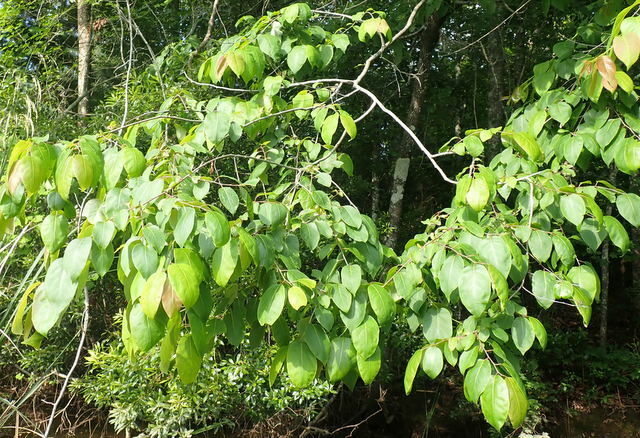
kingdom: Plantae
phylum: Tracheophyta
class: Magnoliopsida
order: Ericales
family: Ebenaceae
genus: Diospyros
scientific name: Diospyros virginiana
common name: Persimmon
